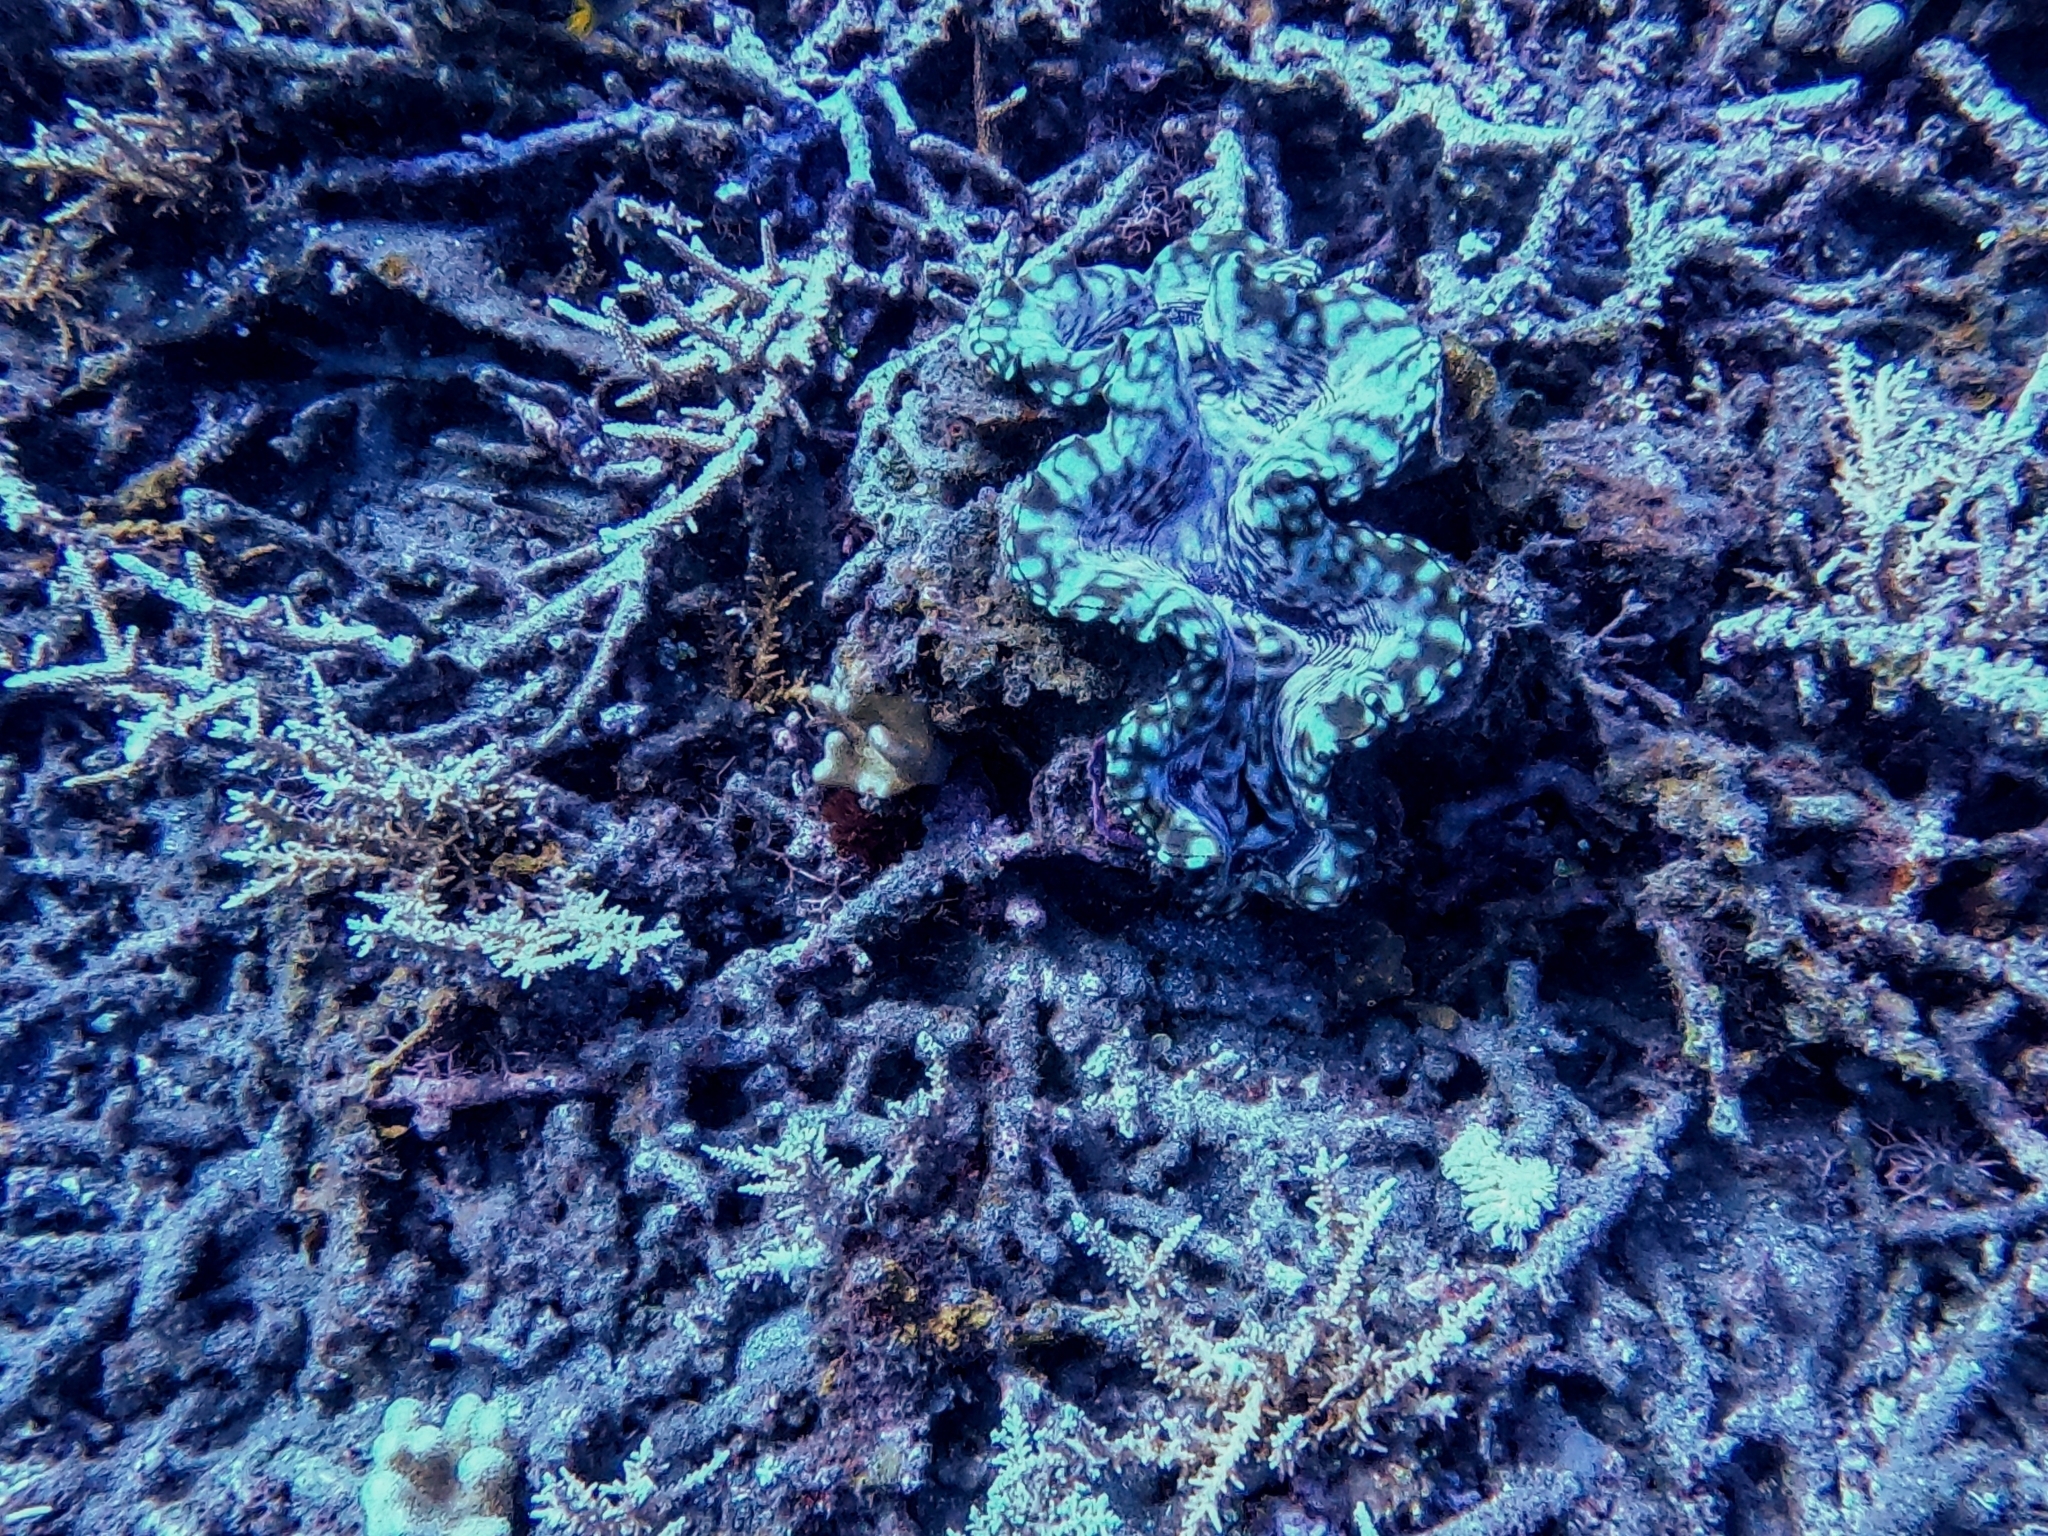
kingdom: Animalia
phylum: Mollusca
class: Bivalvia
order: Cardiida
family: Cardiidae
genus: Tridacna
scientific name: Tridacna squamosa
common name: Fluted clam
